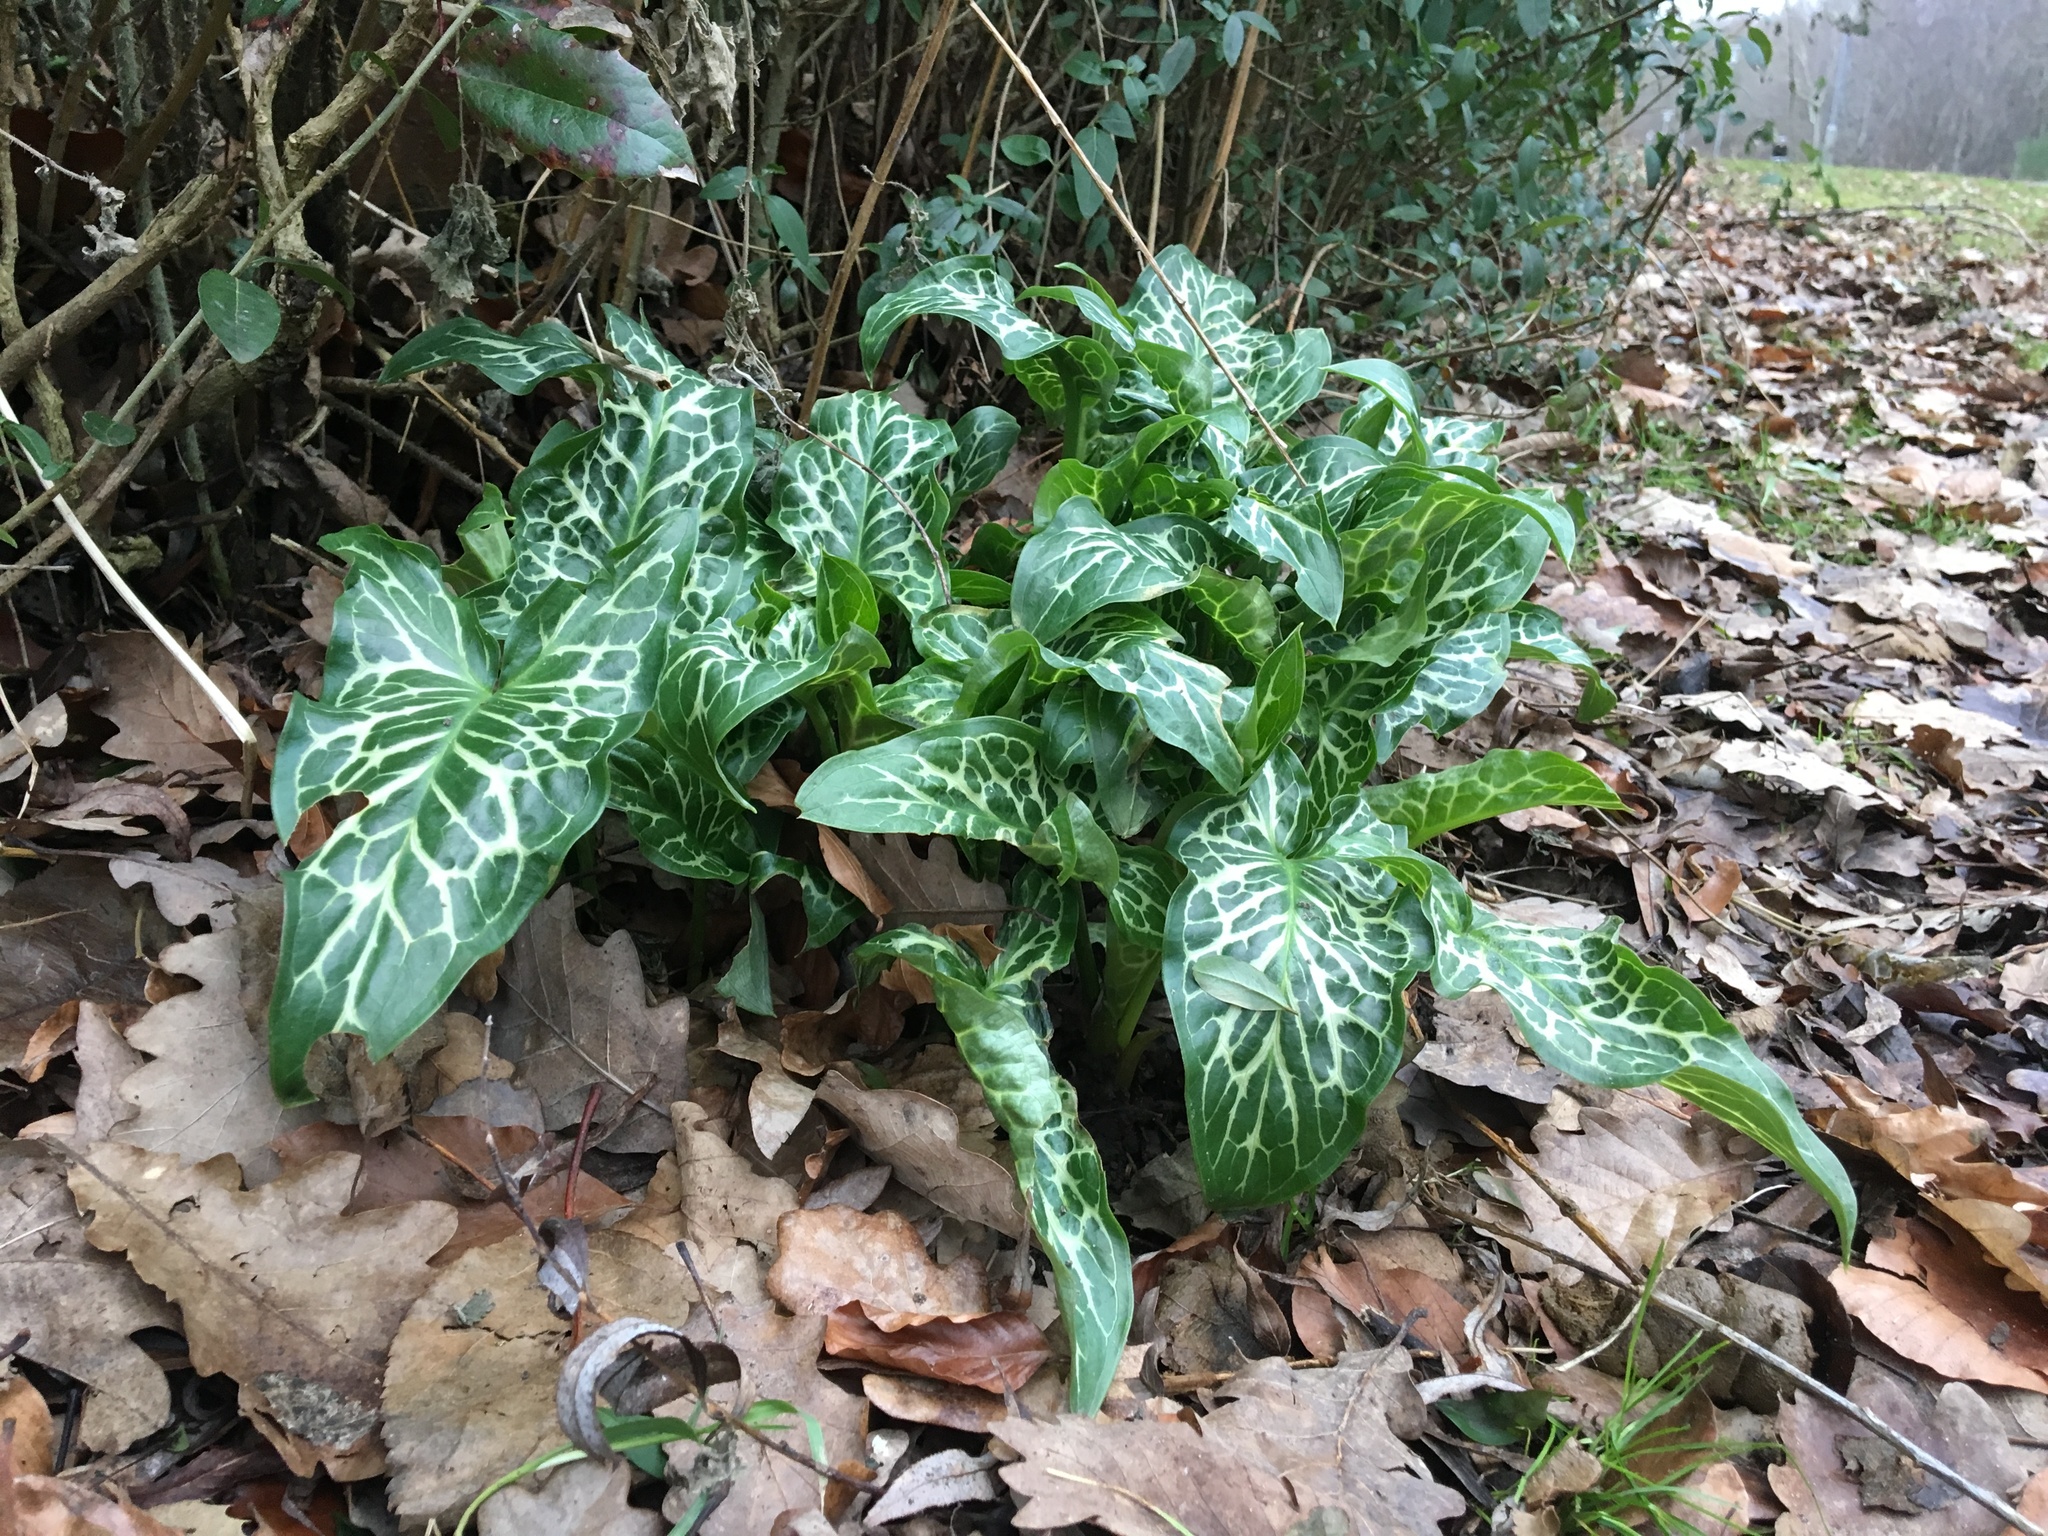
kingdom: Plantae
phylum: Tracheophyta
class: Liliopsida
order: Alismatales
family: Araceae
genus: Arum
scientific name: Arum italicum
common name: Italian lords-and-ladies
